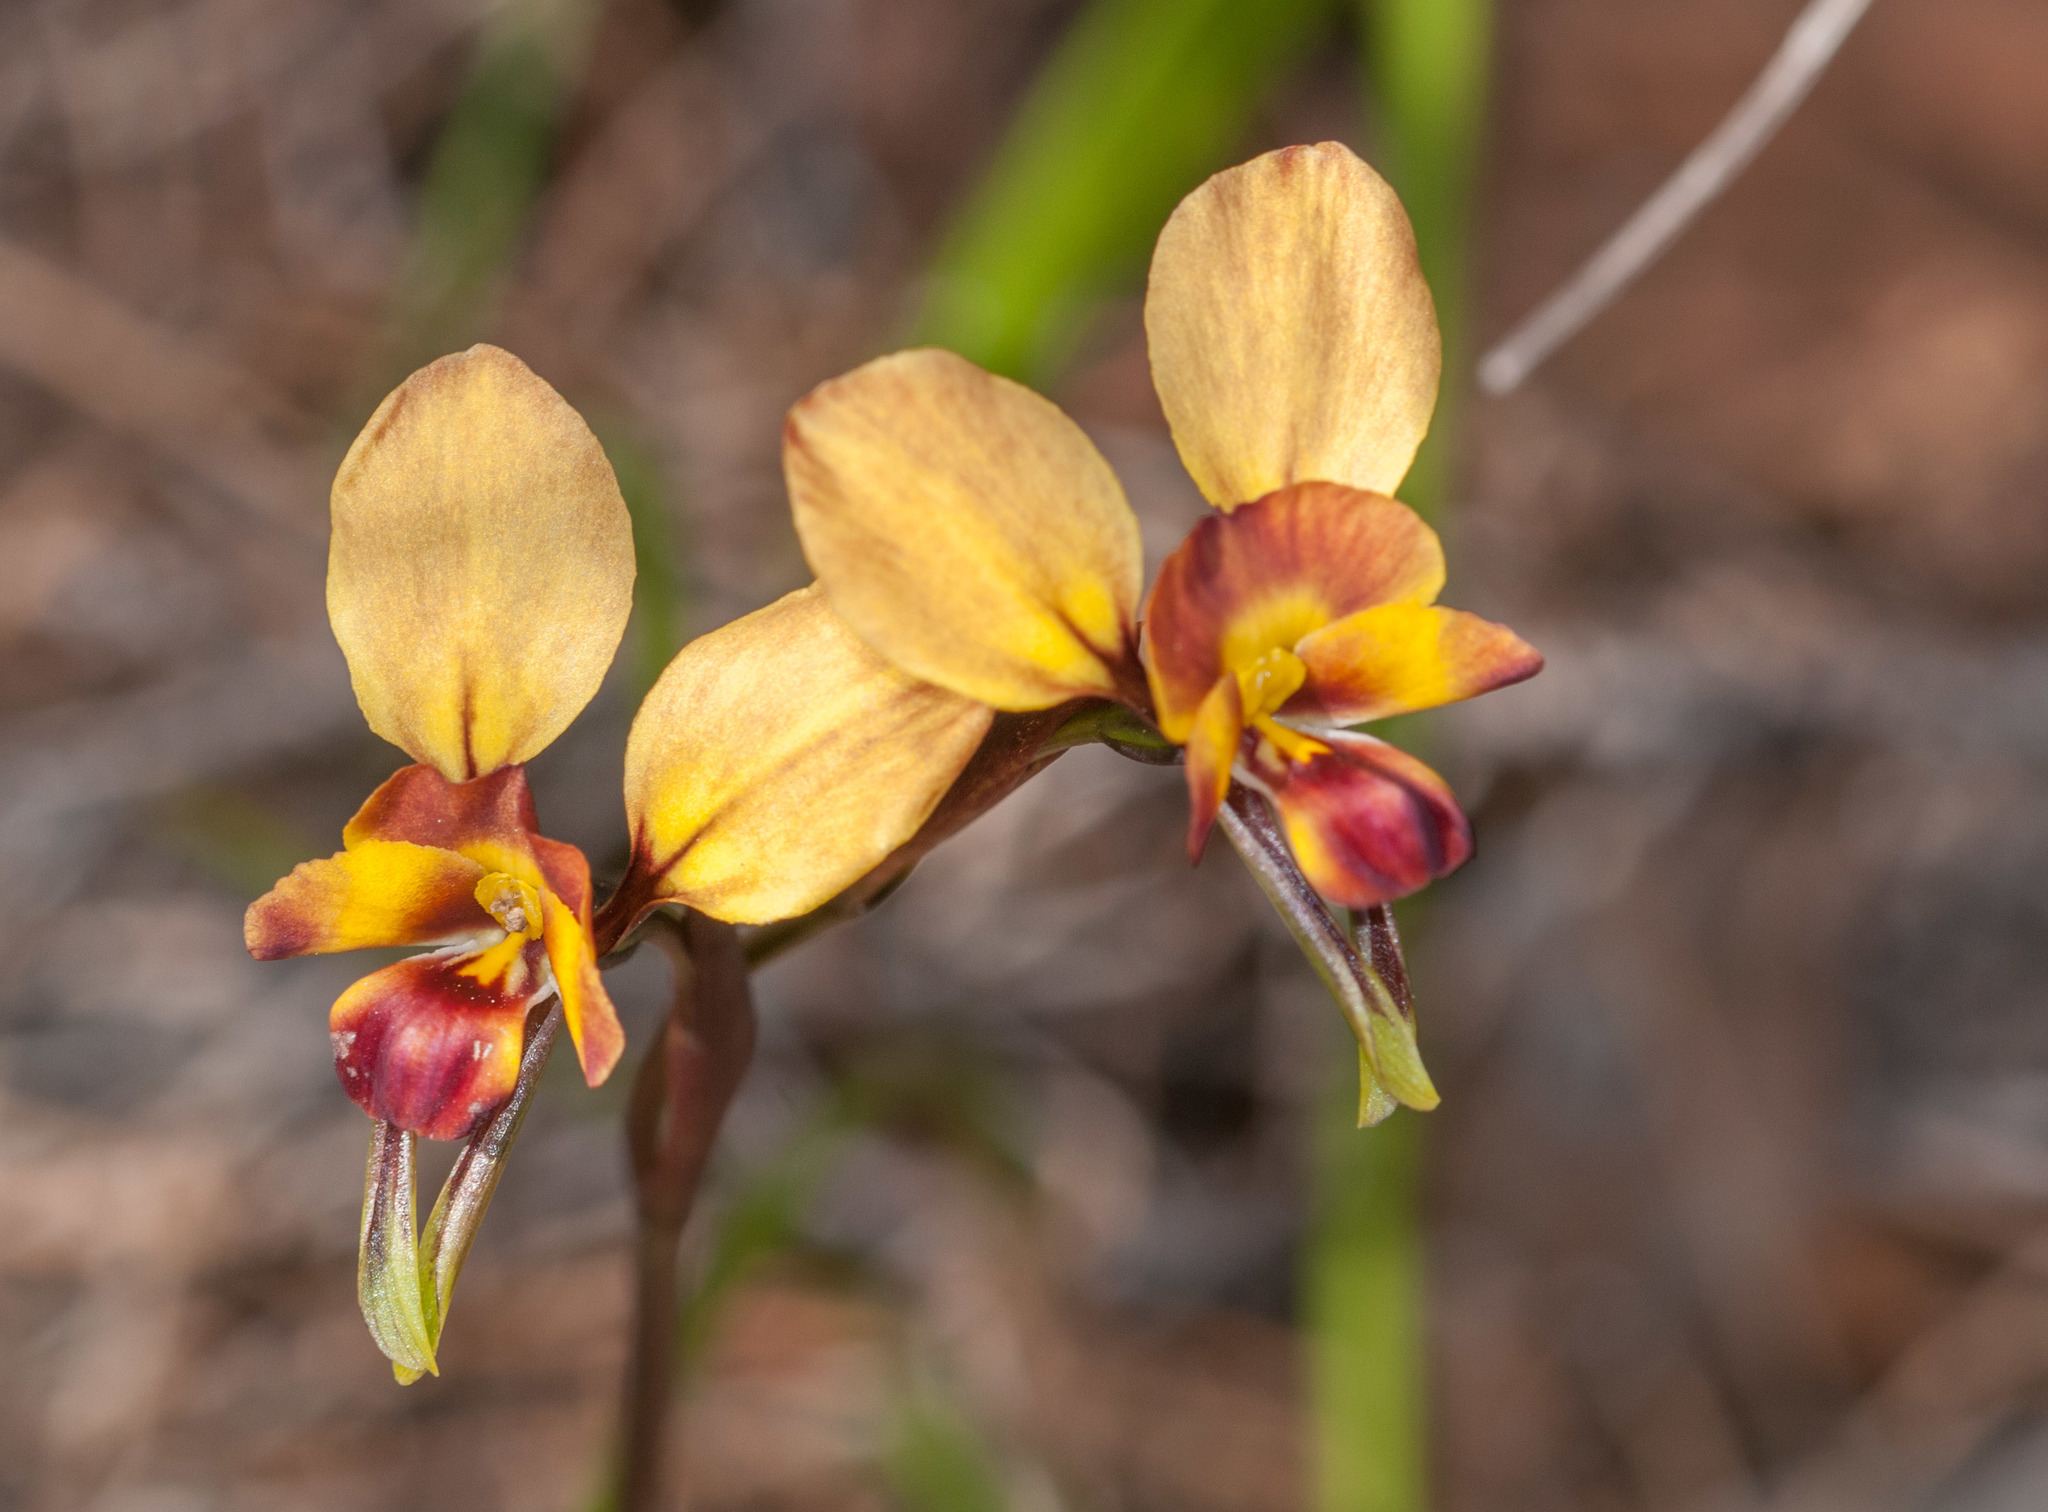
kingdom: Plantae
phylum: Tracheophyta
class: Liliopsida
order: Asparagales
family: Orchidaceae
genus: Diuris
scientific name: Diuris orientis
